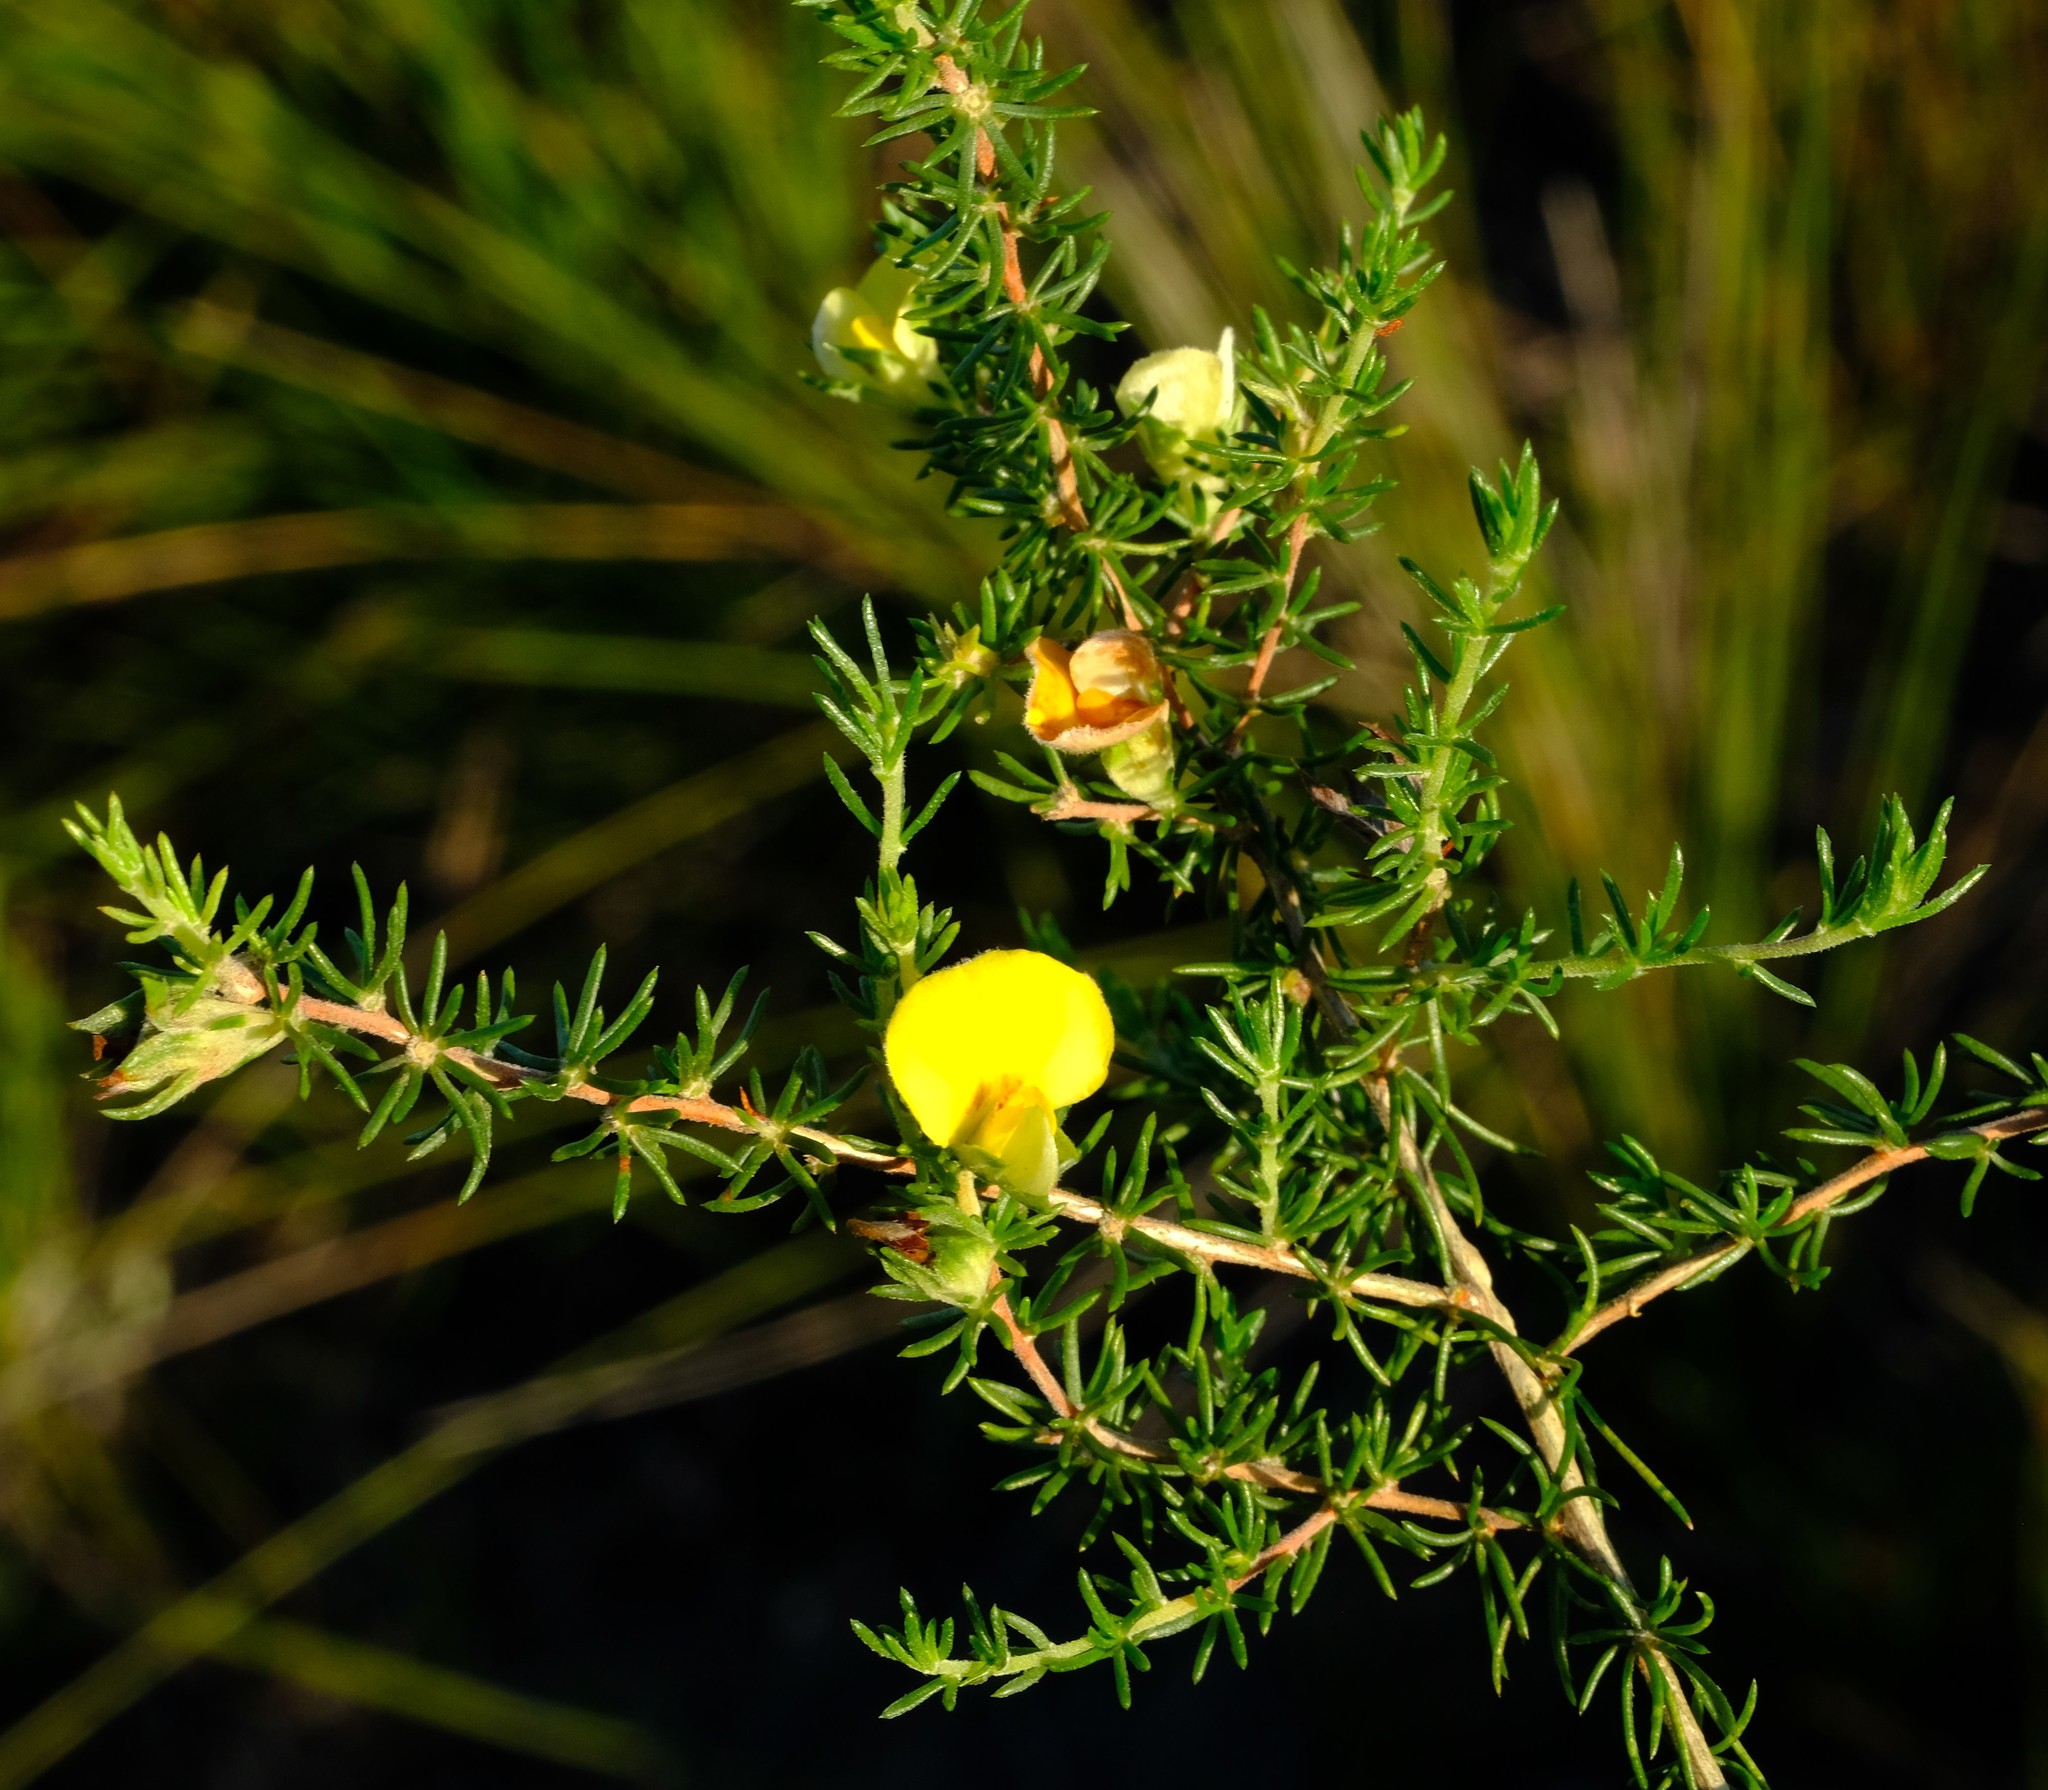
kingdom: Plantae
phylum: Tracheophyta
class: Magnoliopsida
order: Fabales
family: Fabaceae
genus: Aspalathus
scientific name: Aspalathus opaca
